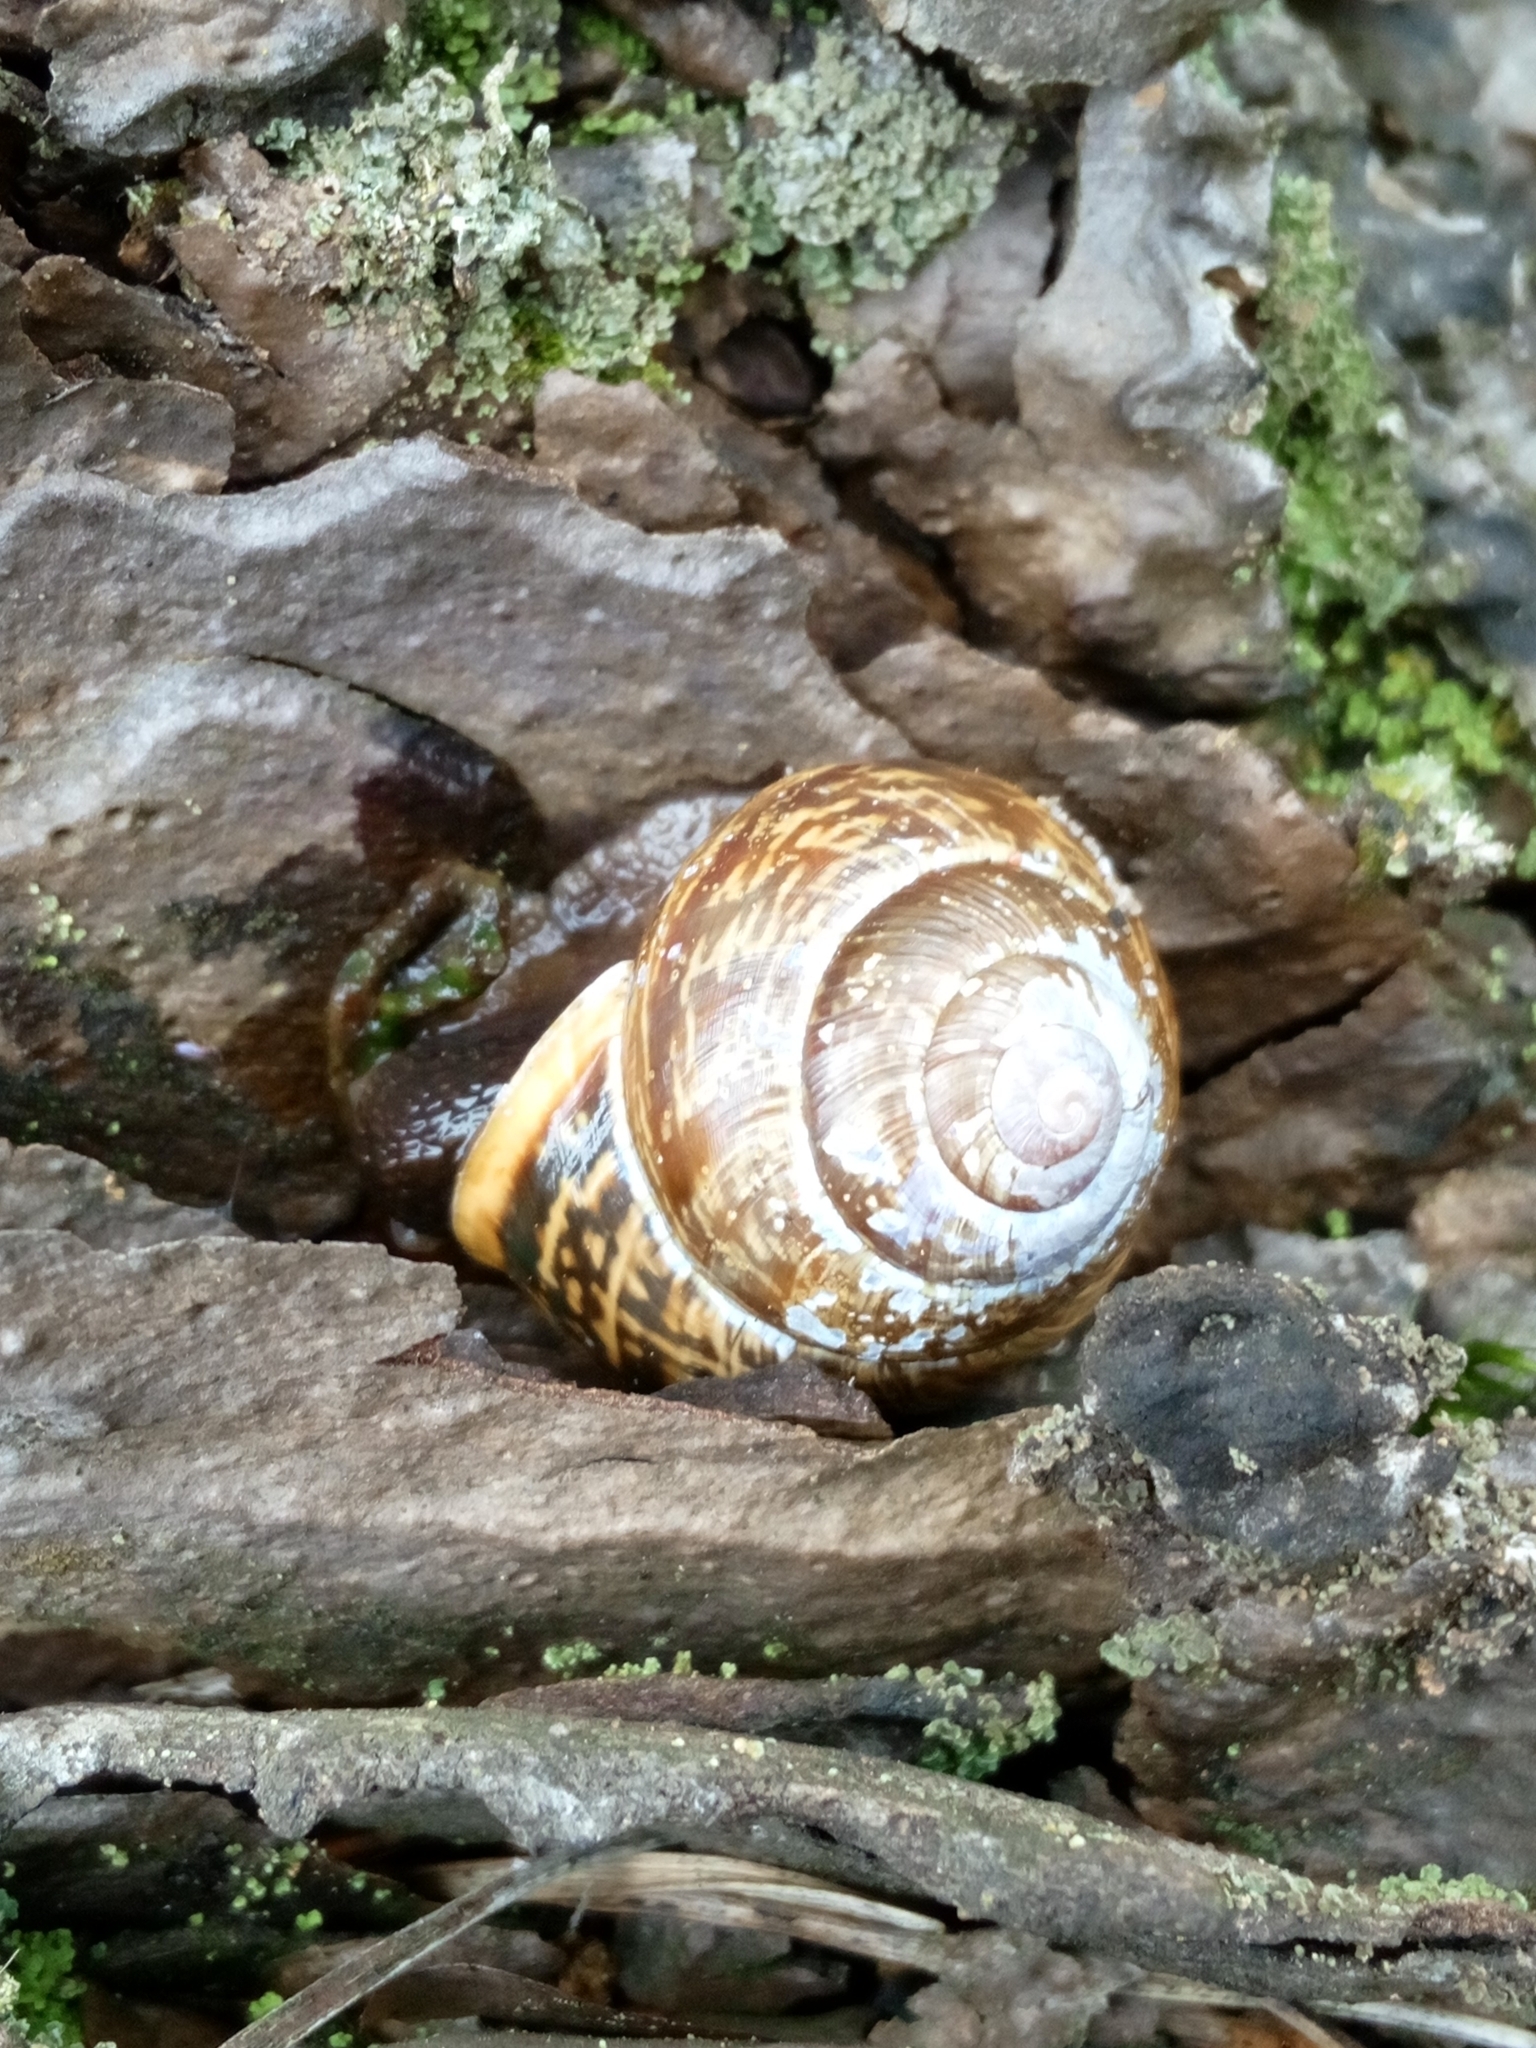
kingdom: Animalia
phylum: Mollusca
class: Gastropoda
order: Stylommatophora
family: Helicidae
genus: Arianta
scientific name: Arianta arbustorum
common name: Copse snail
